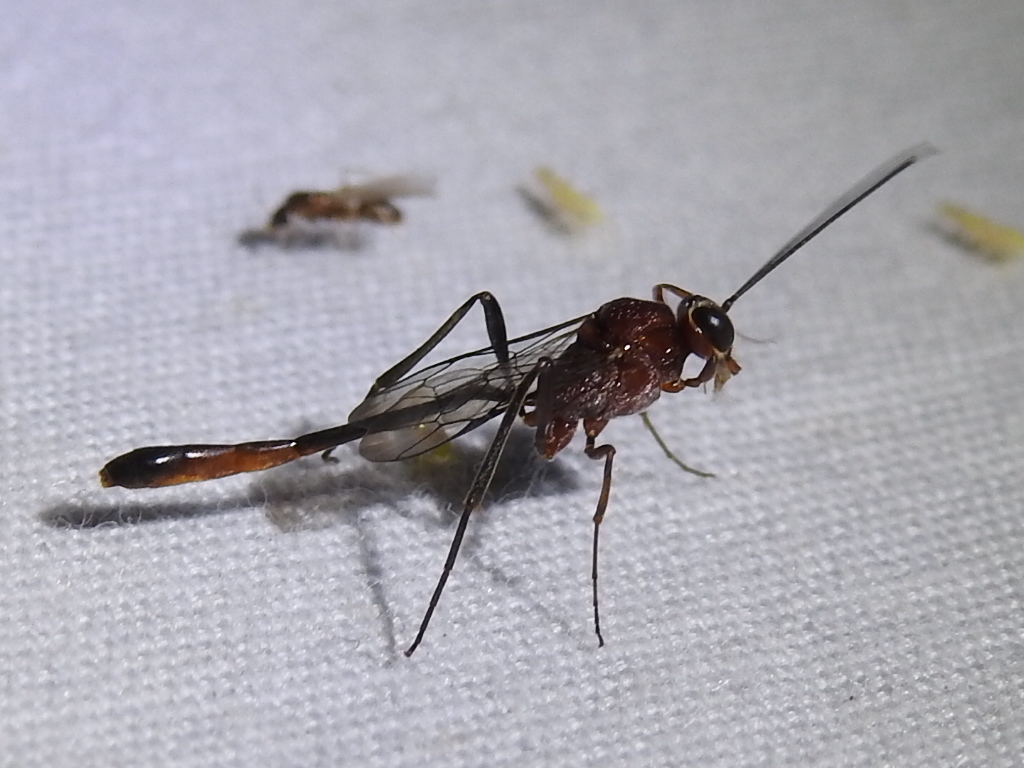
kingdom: Animalia
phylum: Arthropoda
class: Insecta
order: Hymenoptera
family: Ichneumonidae
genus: Anomalon
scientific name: Anomalon
